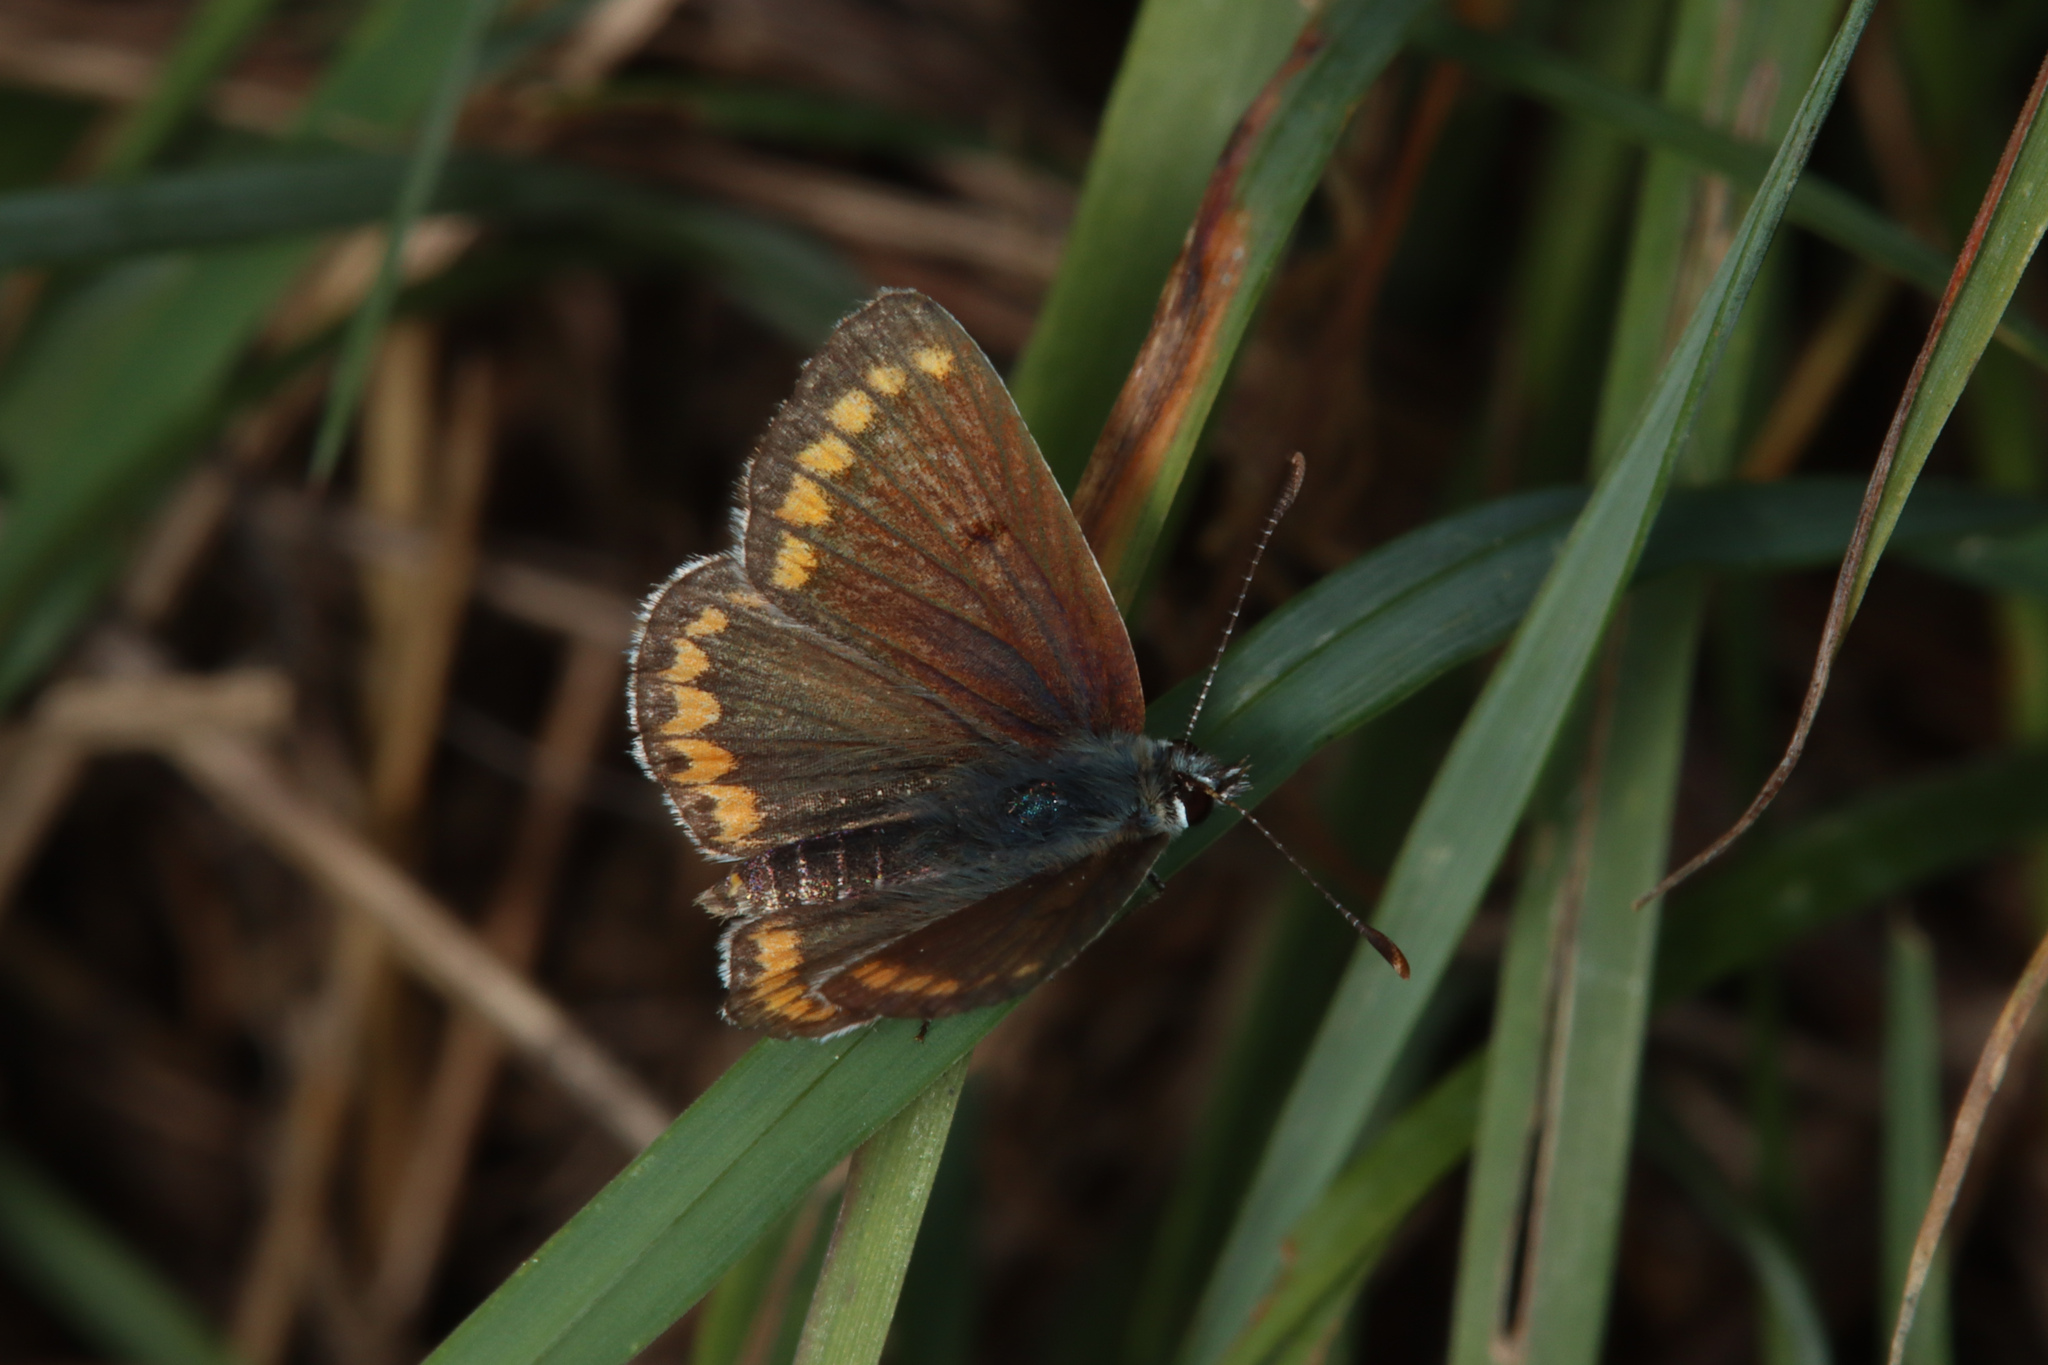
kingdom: Animalia
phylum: Arthropoda
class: Insecta
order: Lepidoptera
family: Lycaenidae
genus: Aricia
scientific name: Aricia agestis
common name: Brown argus
